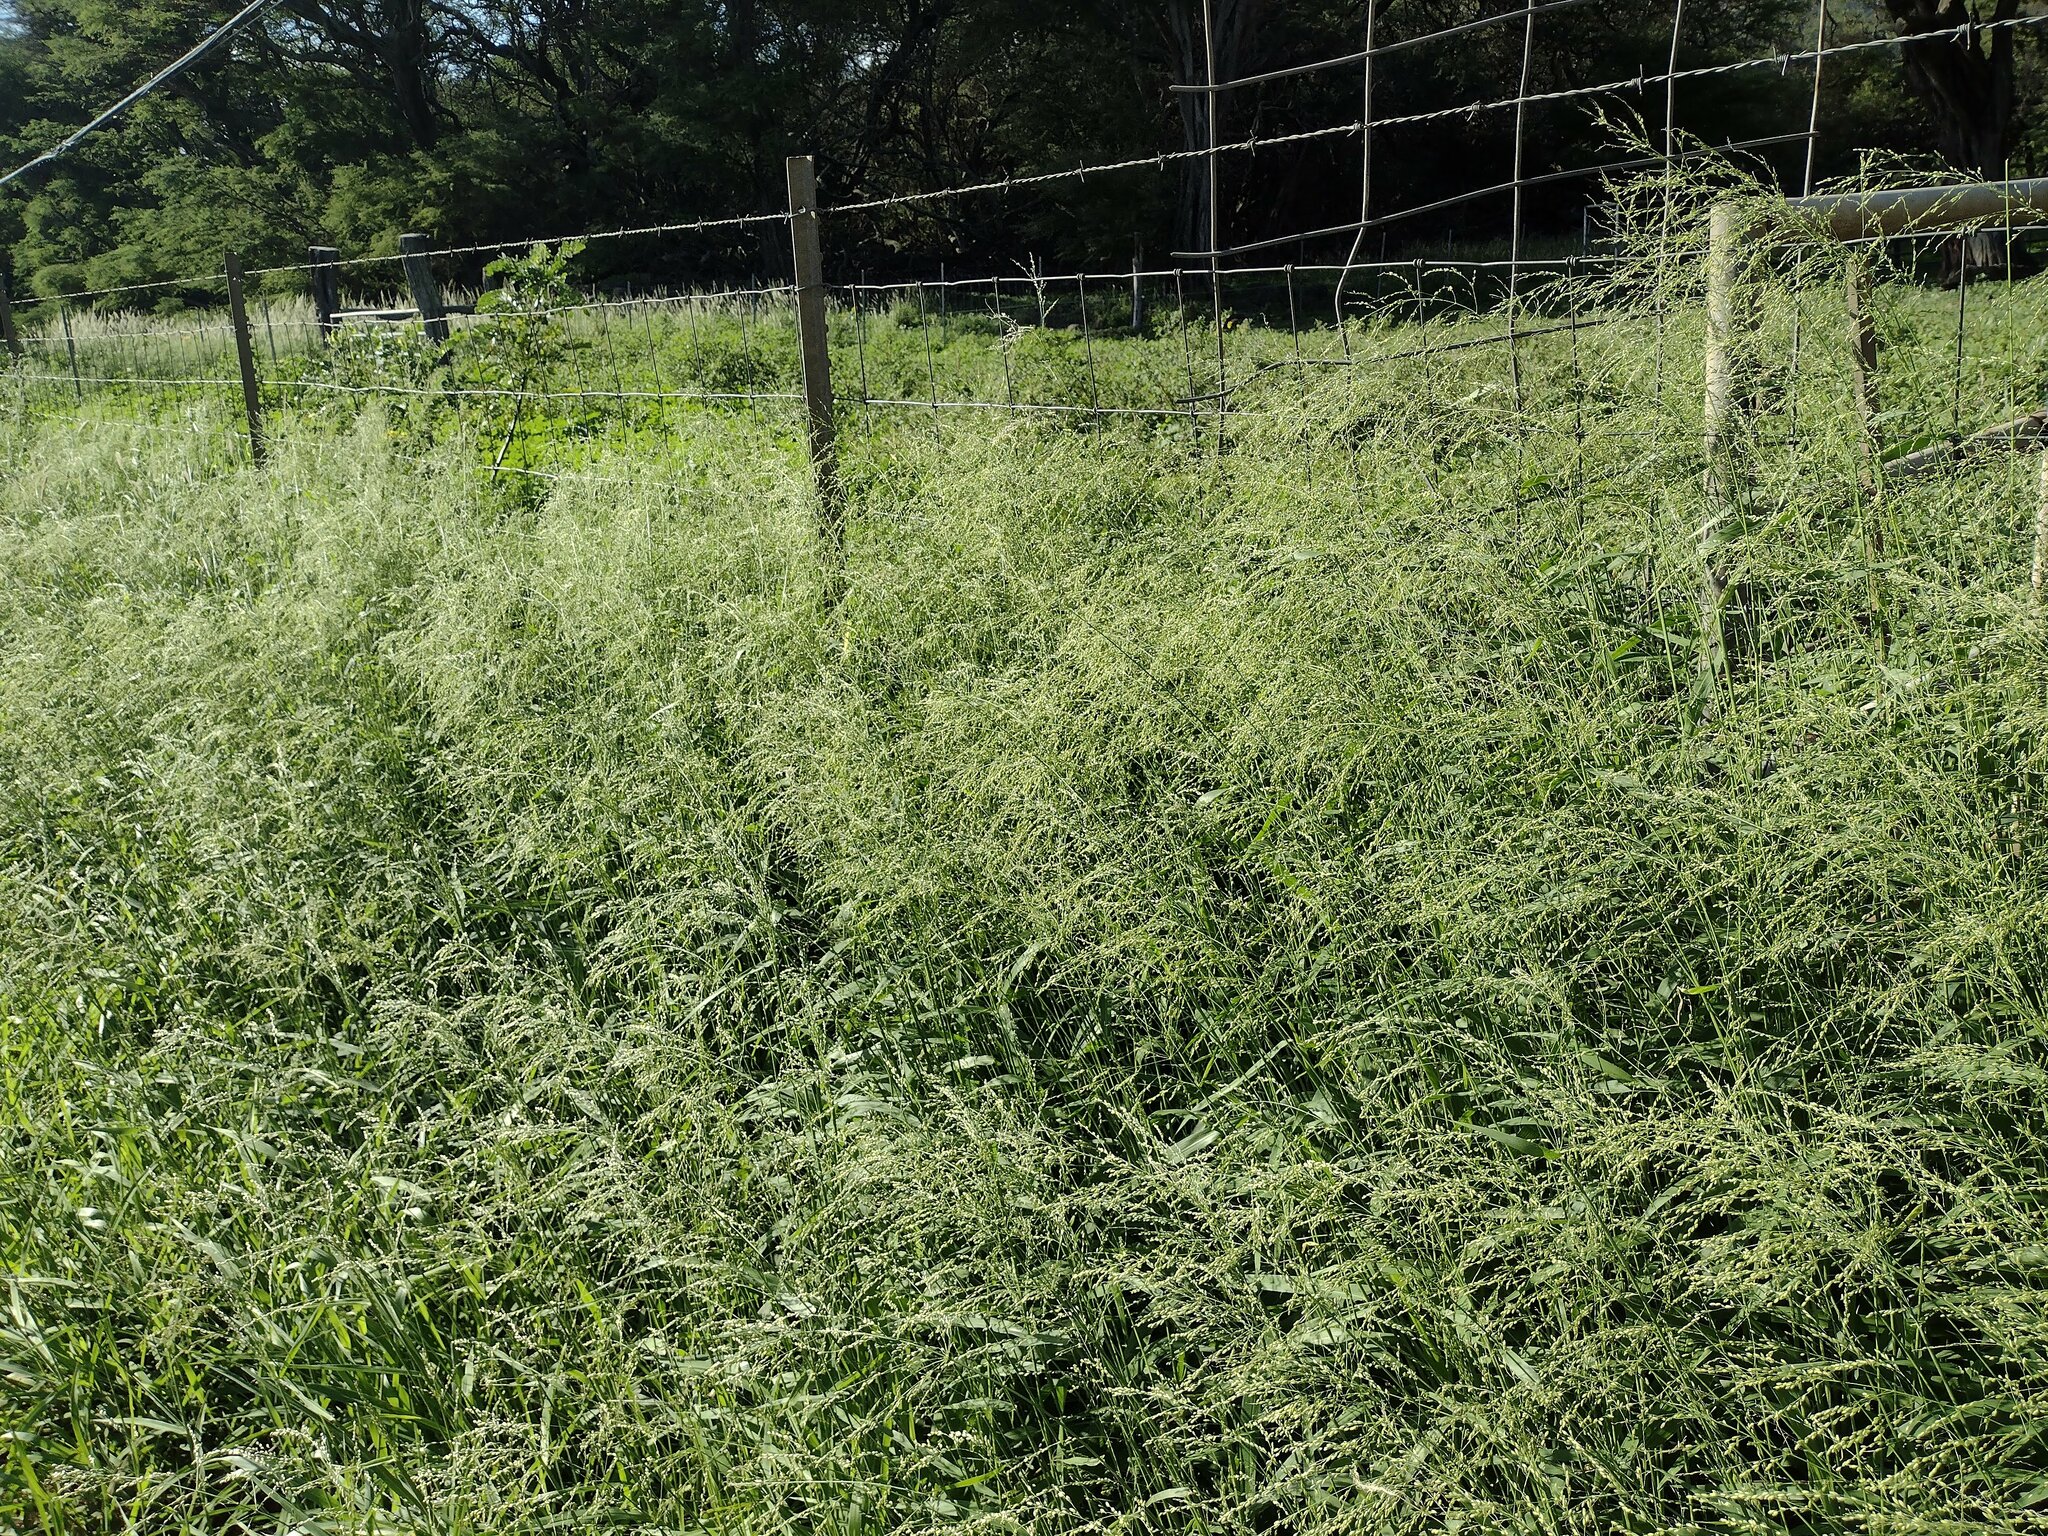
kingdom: Plantae
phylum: Tracheophyta
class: Liliopsida
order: Poales
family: Poaceae
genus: Megathyrsus
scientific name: Megathyrsus maximus
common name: Guineagrass
